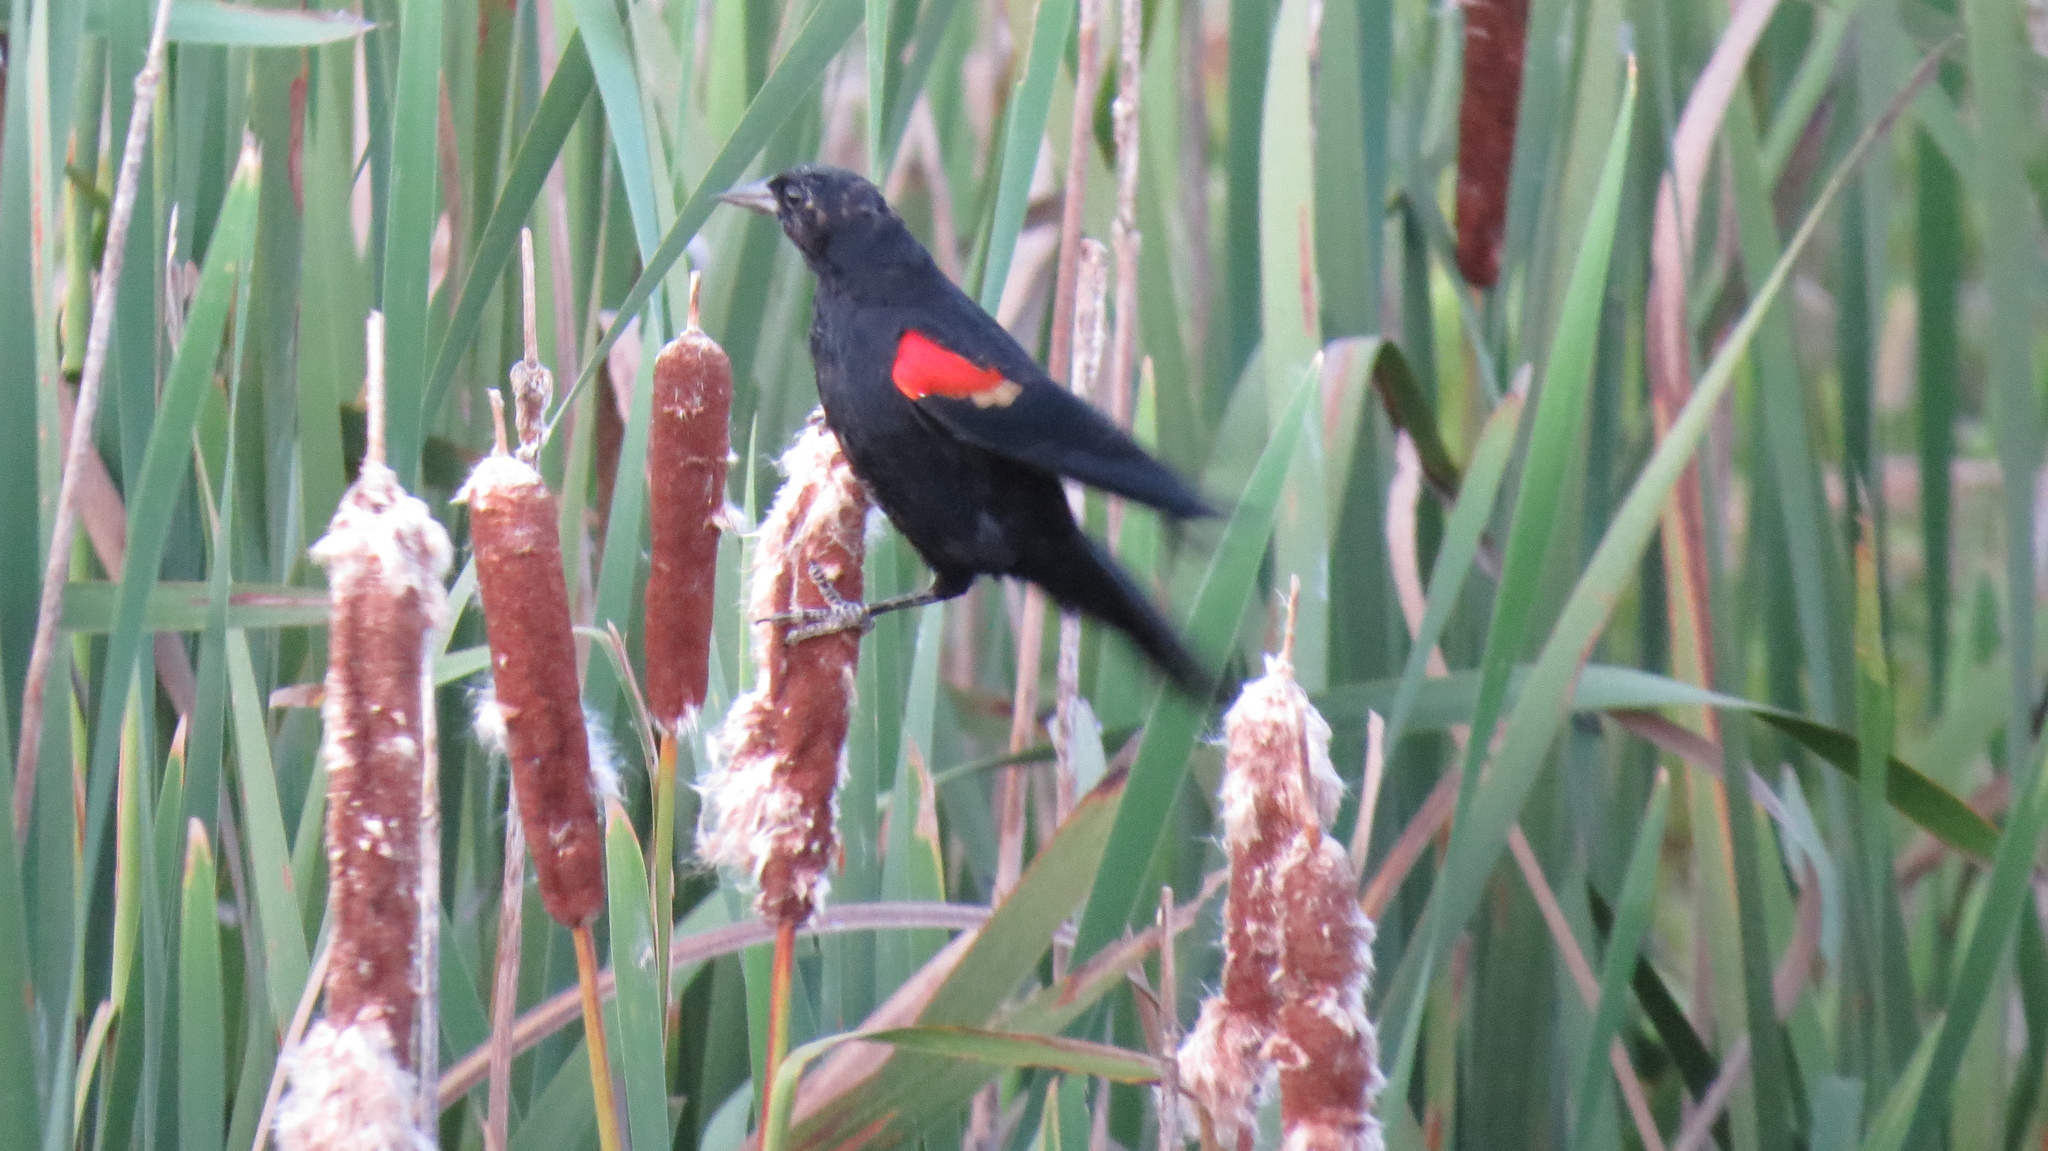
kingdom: Animalia
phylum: Chordata
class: Aves
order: Passeriformes
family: Icteridae
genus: Agelaius
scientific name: Agelaius phoeniceus
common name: Red-winged blackbird
